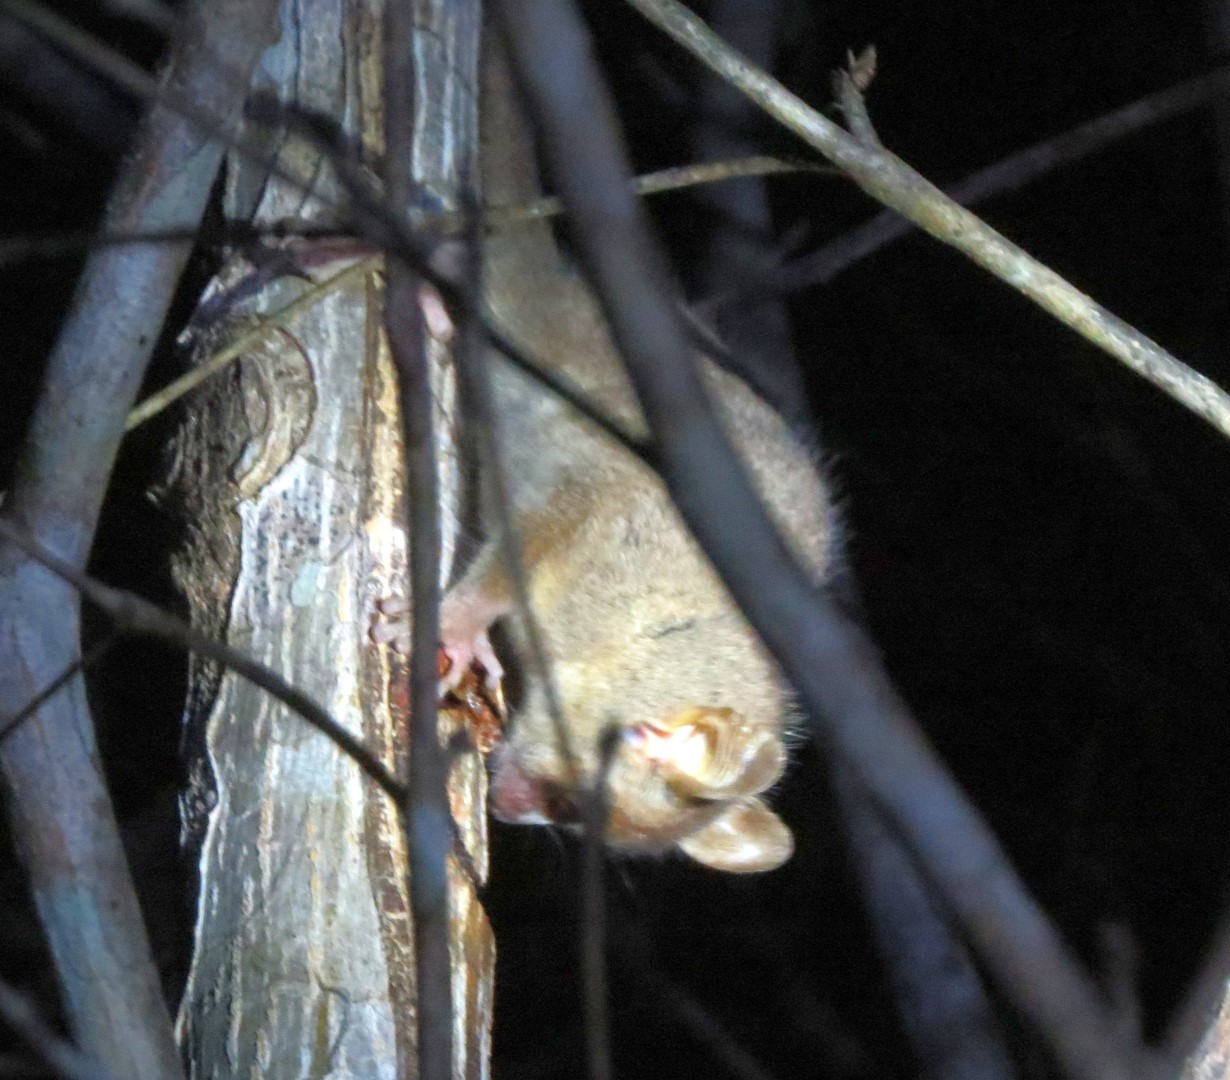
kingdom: Animalia
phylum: Chordata
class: Mammalia
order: Primates
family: Cheirogaleidae
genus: Microcebus
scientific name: Microcebus murinus
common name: Gray mouse lemur
